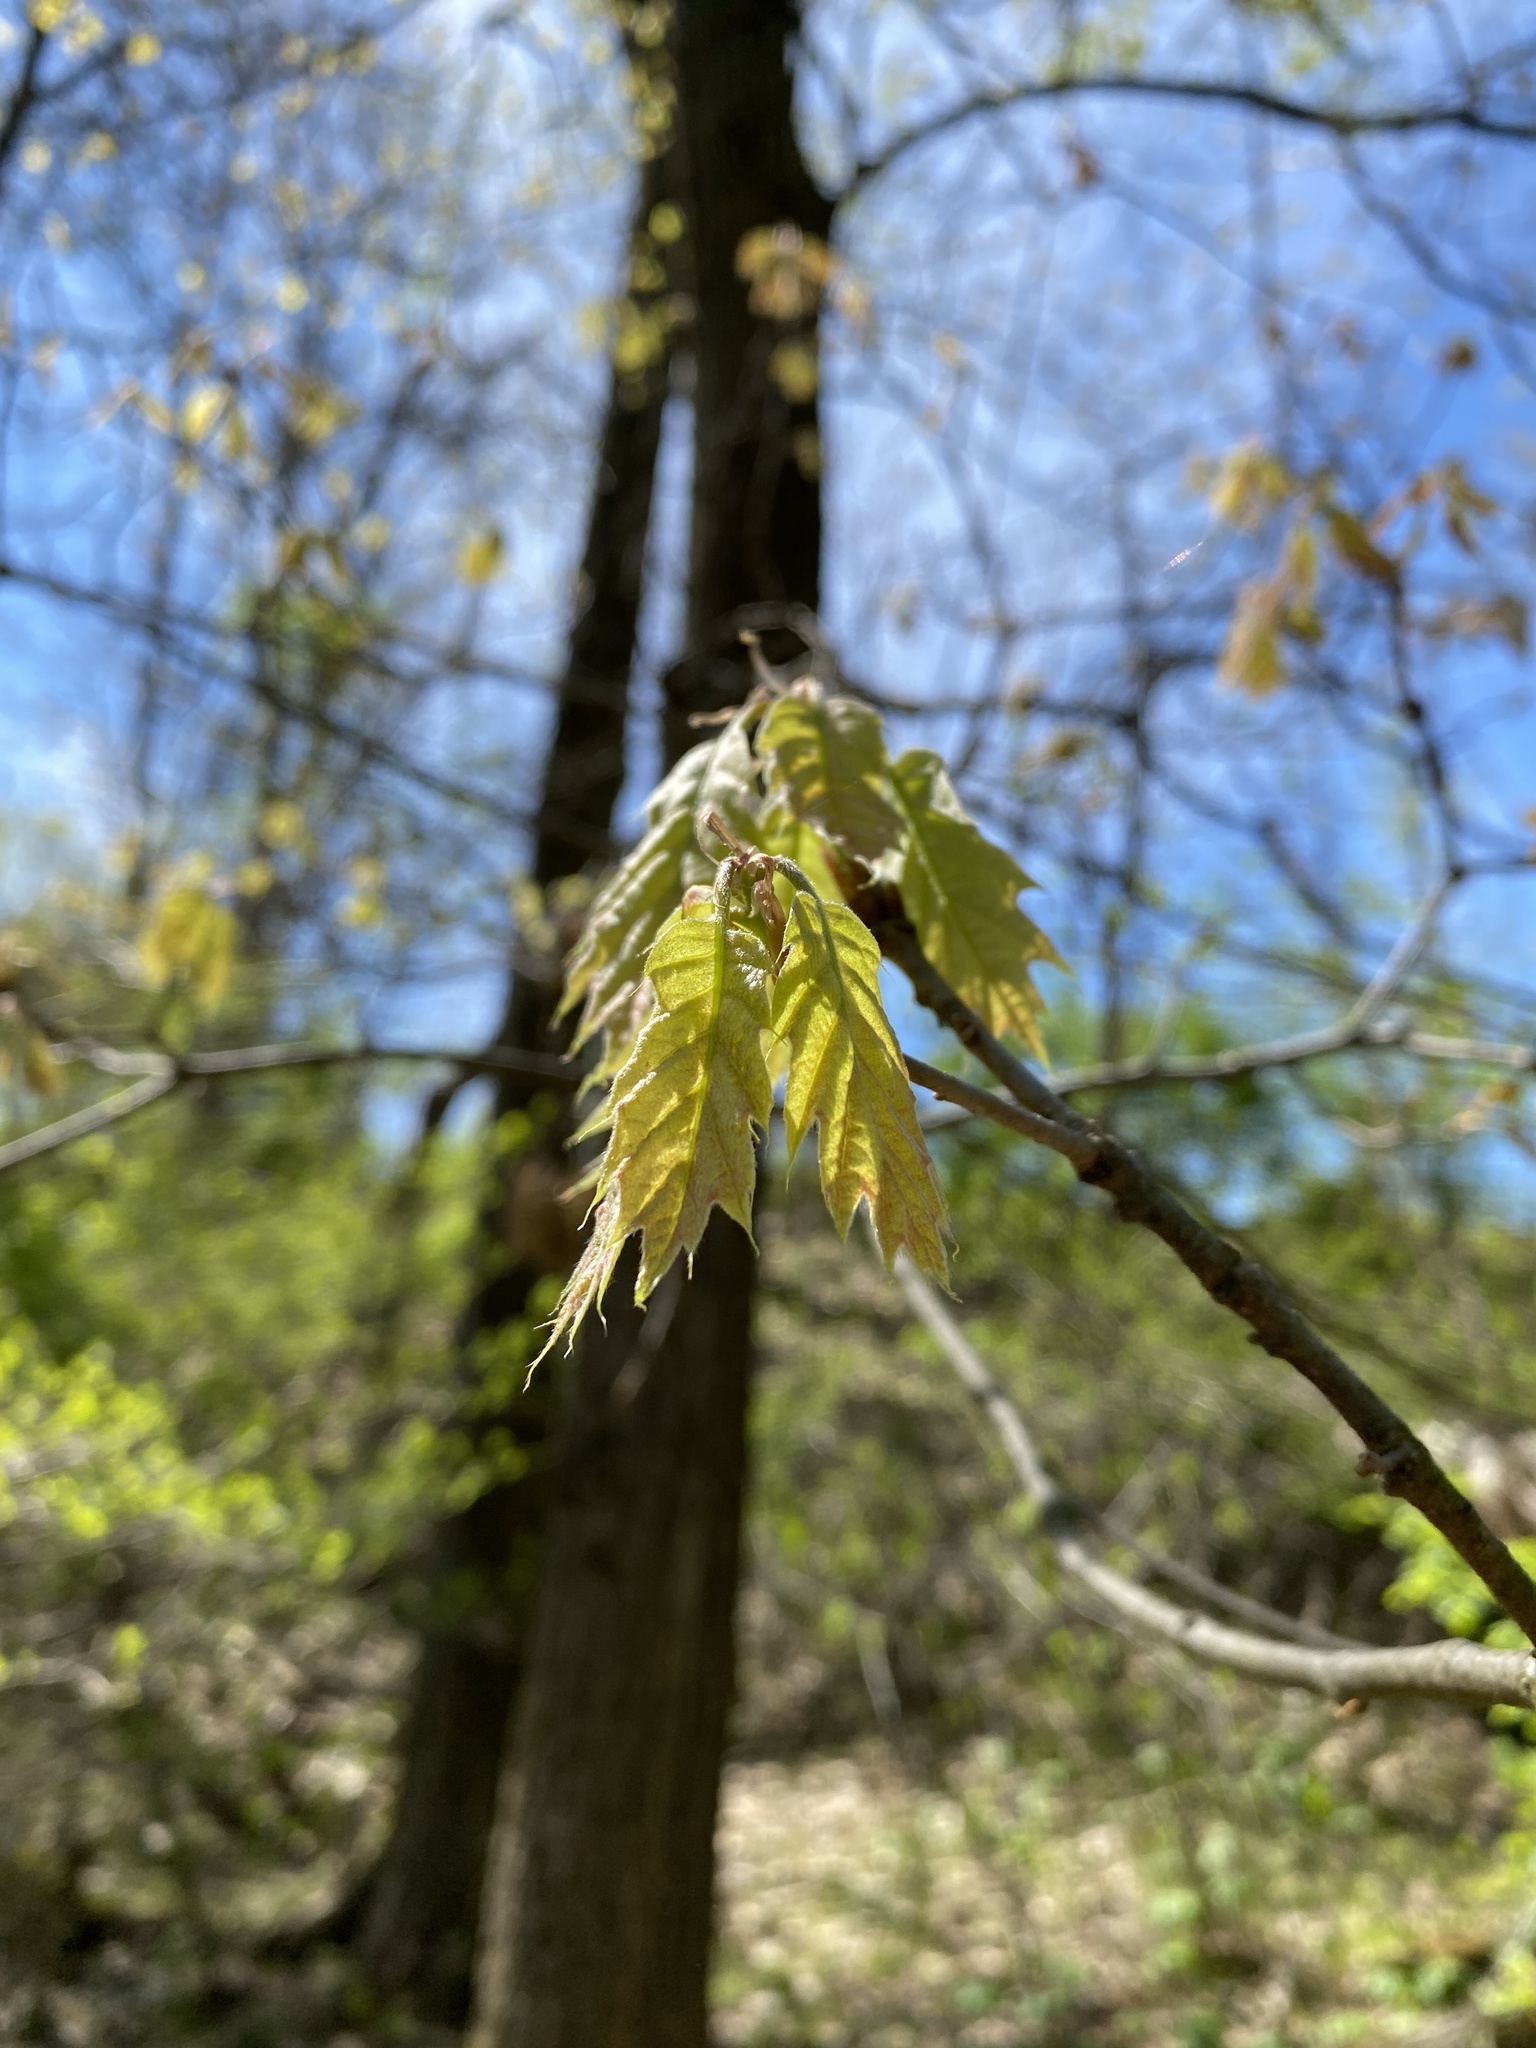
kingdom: Plantae
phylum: Tracheophyta
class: Magnoliopsida
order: Fagales
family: Fagaceae
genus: Quercus
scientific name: Quercus rubra
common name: Red oak
